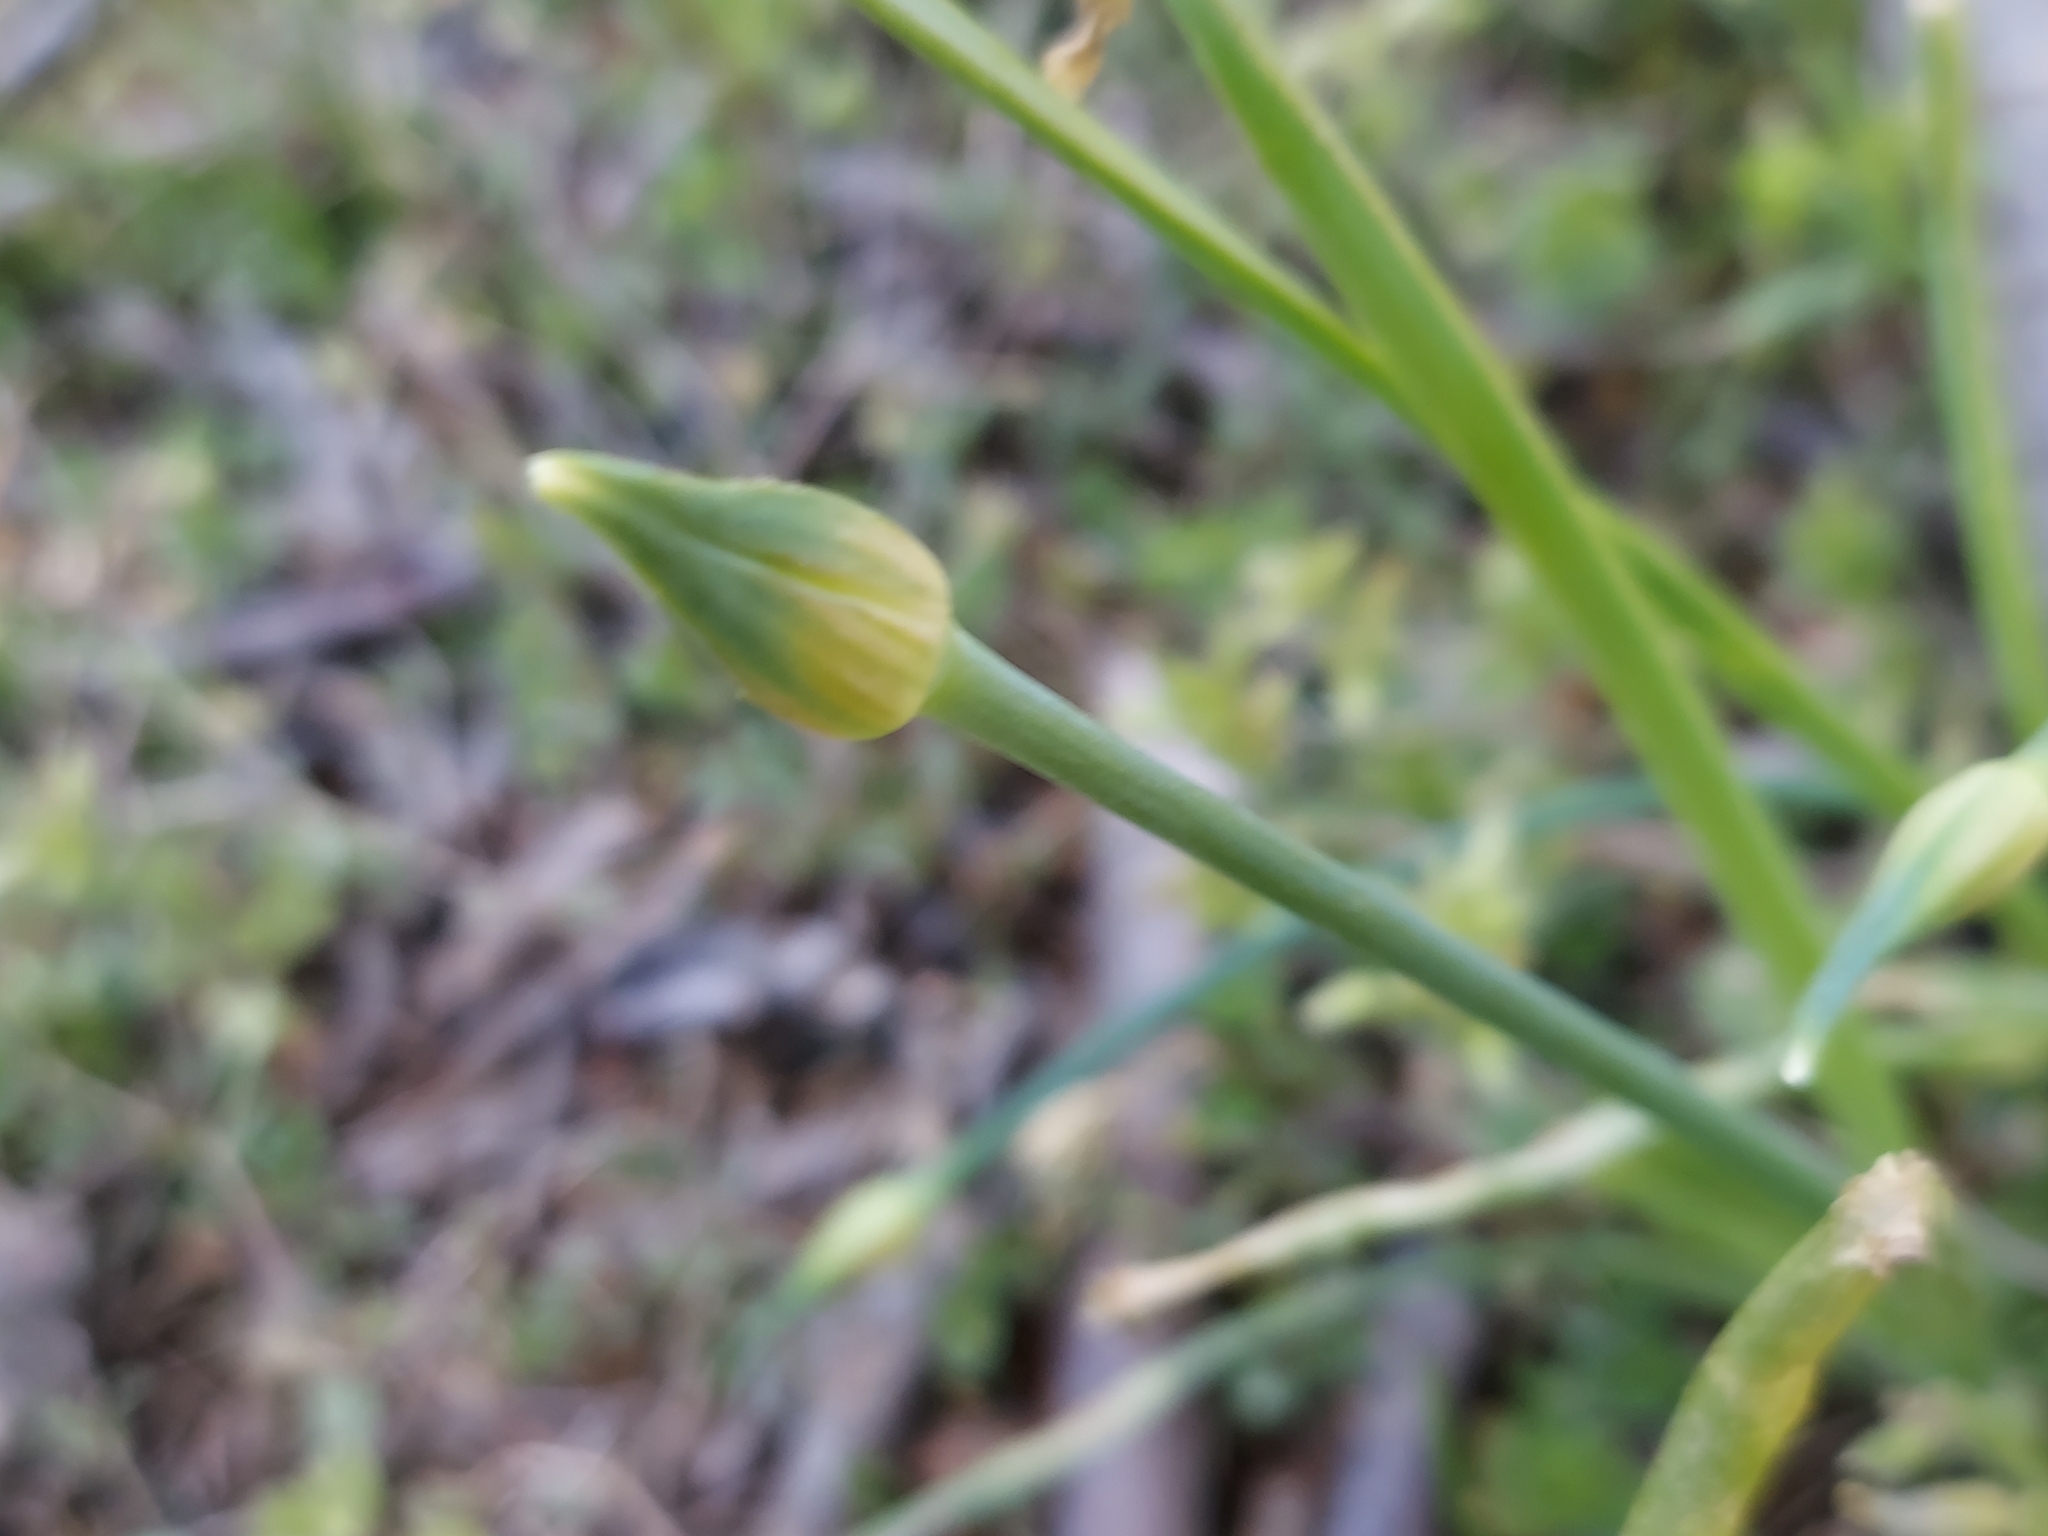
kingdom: Plantae
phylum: Tracheophyta
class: Liliopsida
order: Asparagales
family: Amaryllidaceae
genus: Allium
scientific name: Allium canadense
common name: Meadow garlic
